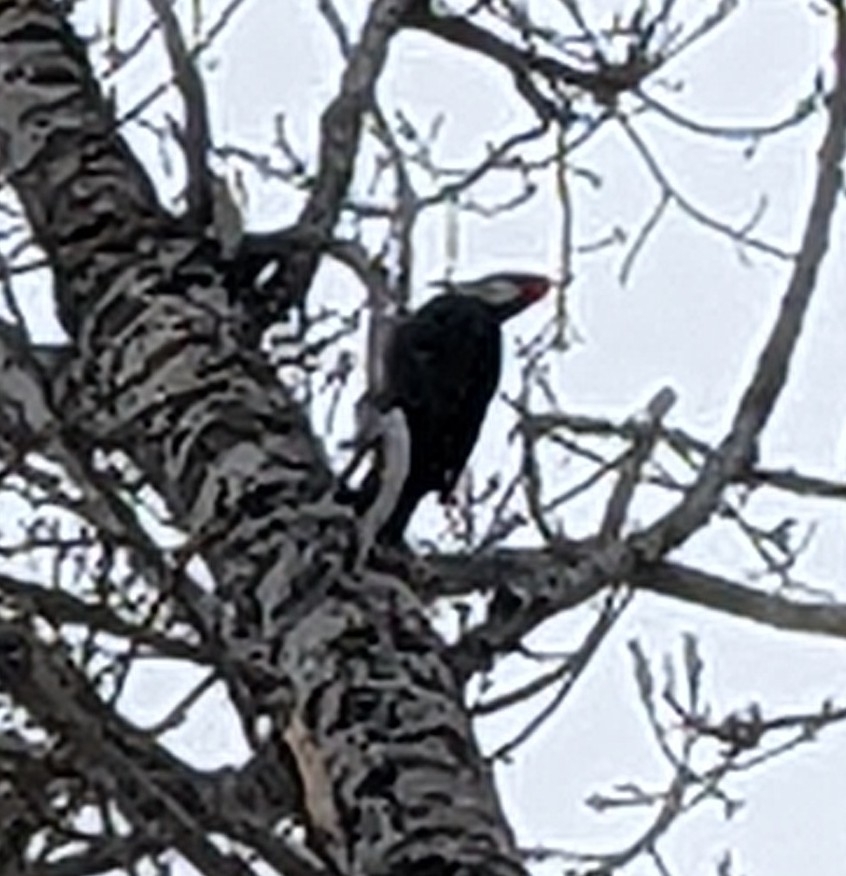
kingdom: Animalia
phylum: Chordata
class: Aves
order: Piciformes
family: Picidae
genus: Dryocopus
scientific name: Dryocopus pileatus
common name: Pileated woodpecker
